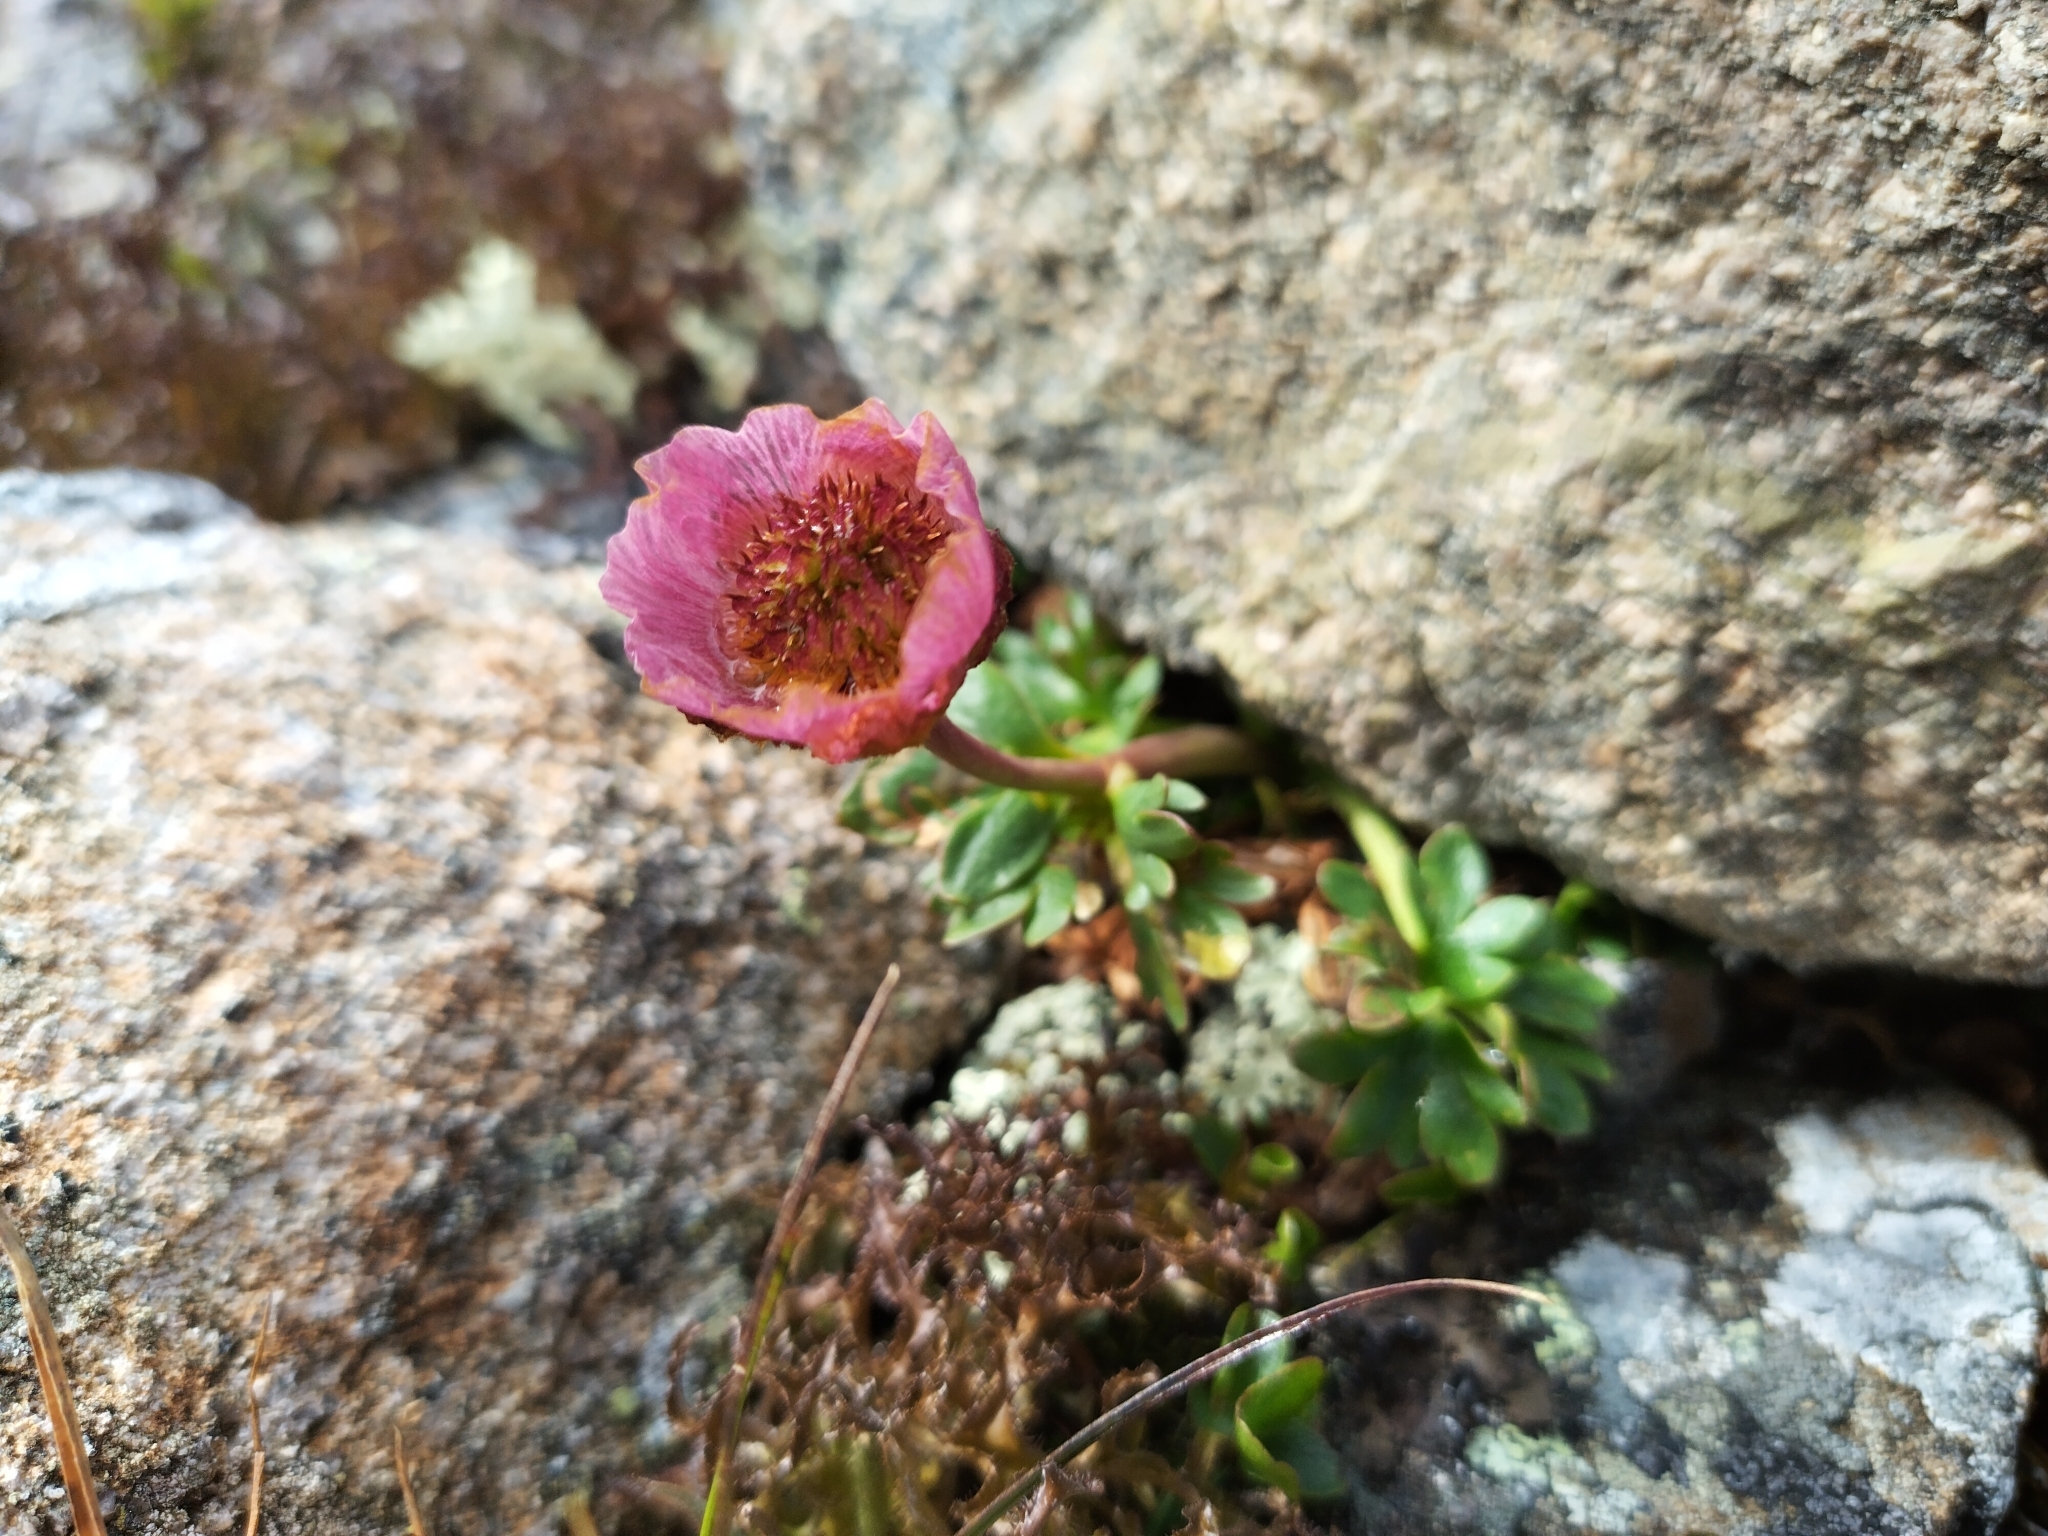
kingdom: Plantae
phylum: Tracheophyta
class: Magnoliopsida
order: Ranunculales
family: Ranunculaceae
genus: Ranunculus
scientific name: Ranunculus glacialis
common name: Glacier buttercup
